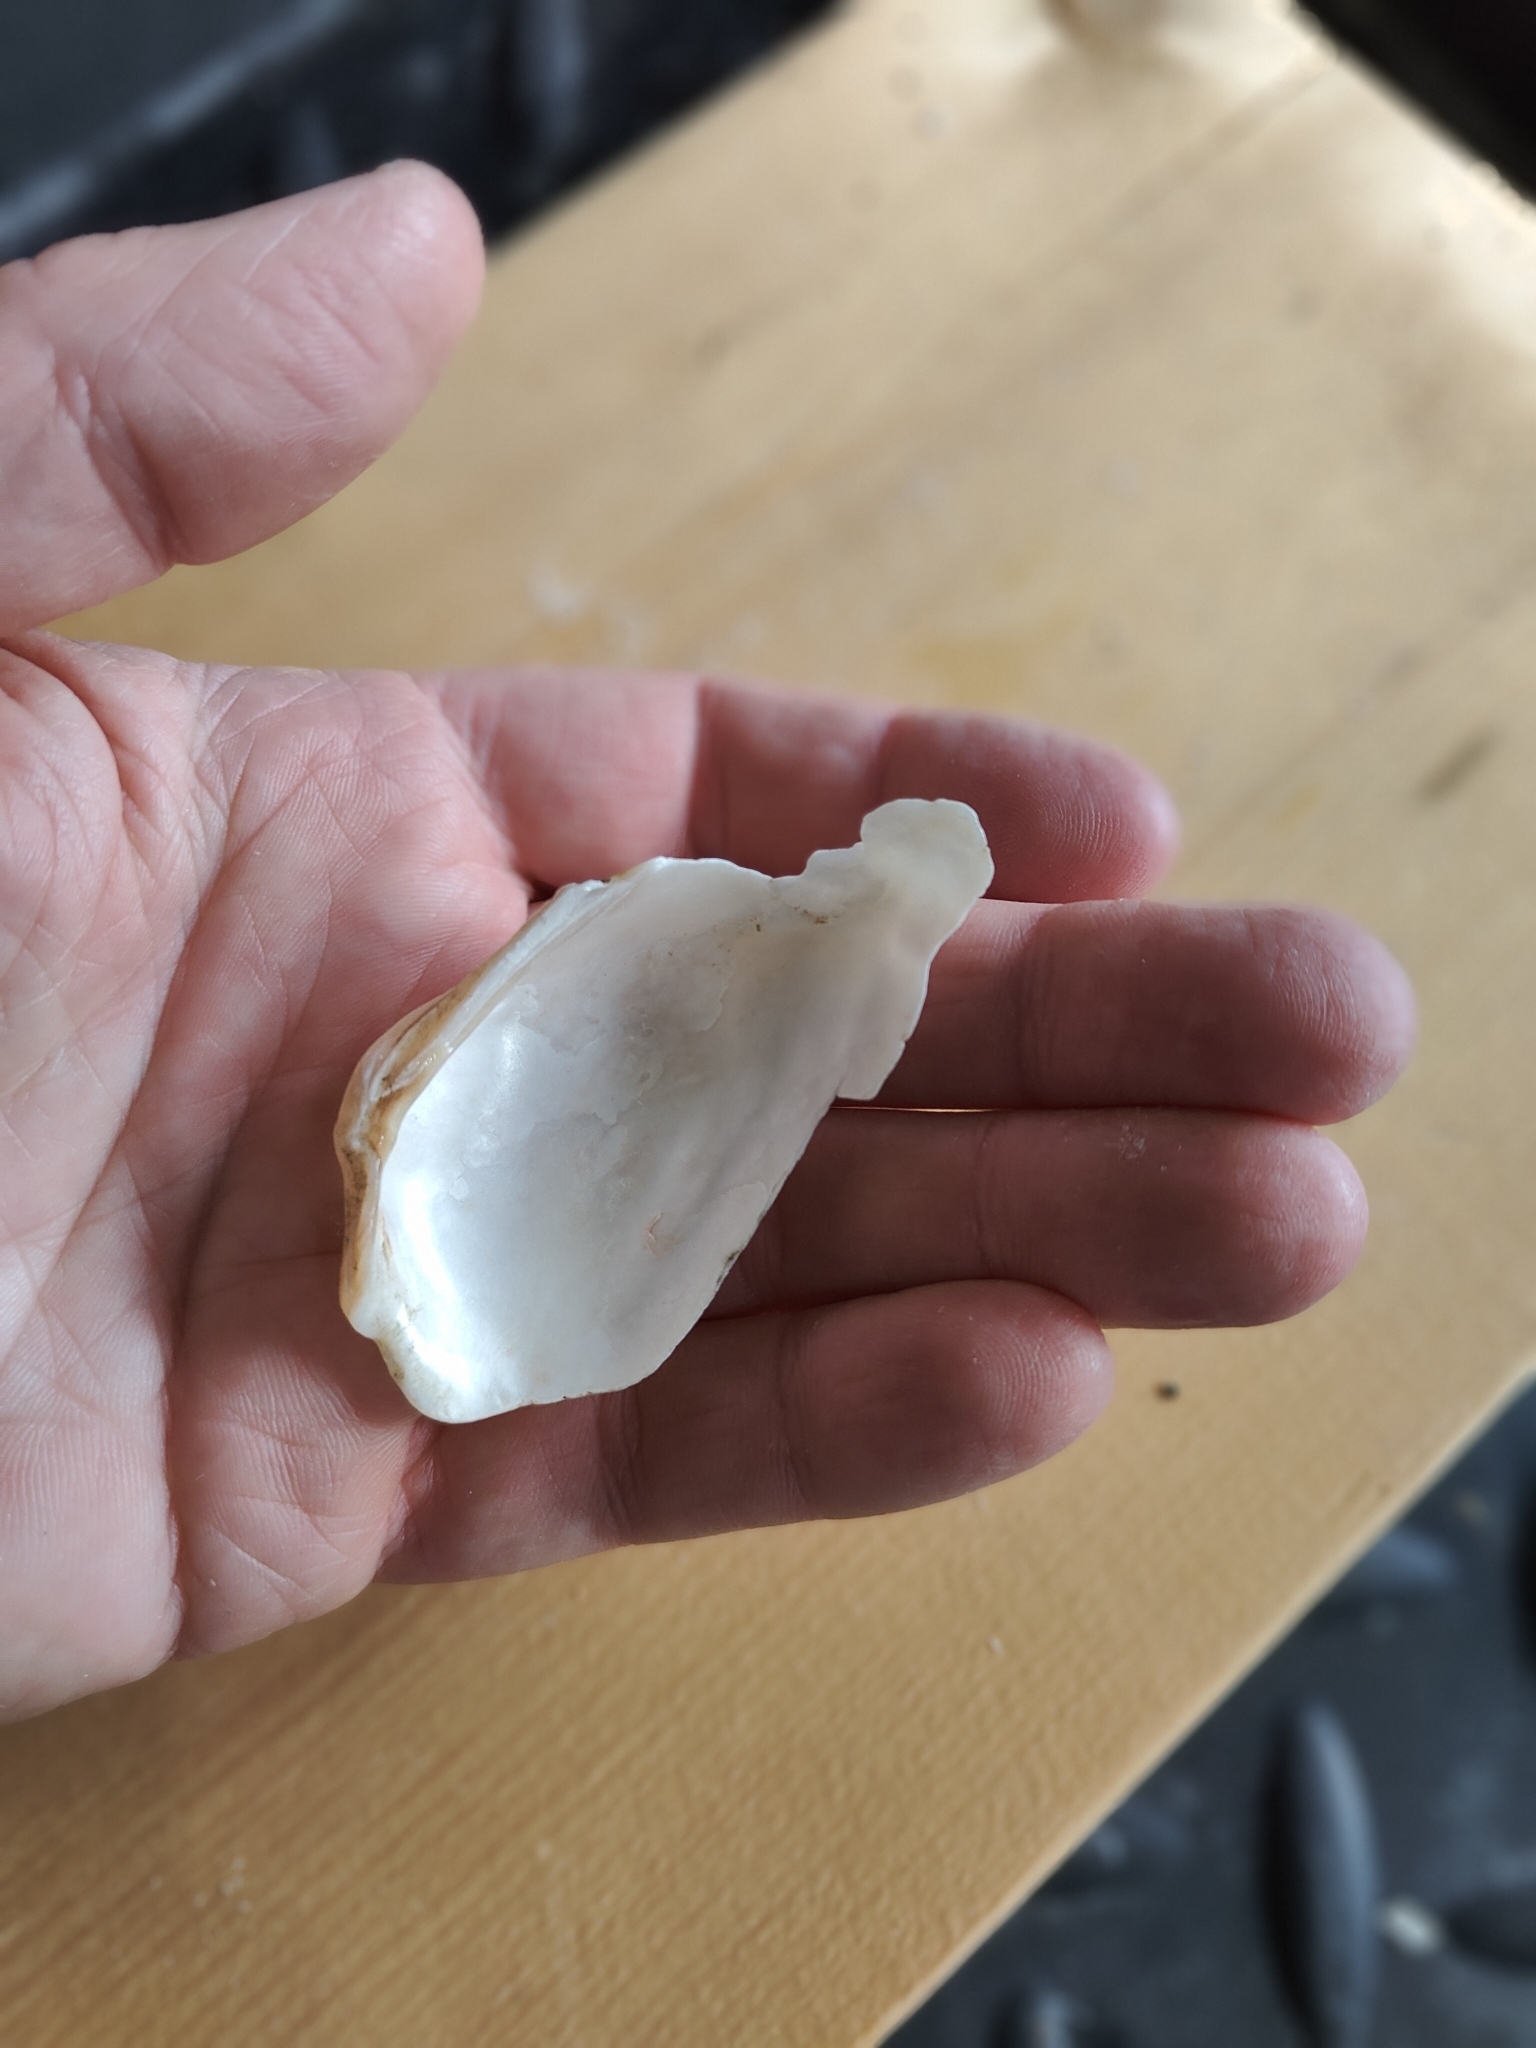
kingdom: Animalia
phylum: Mollusca
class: Bivalvia
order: Unionida
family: Unionidae
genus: Alasmidonta
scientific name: Alasmidonta marginata
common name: Elktoe
